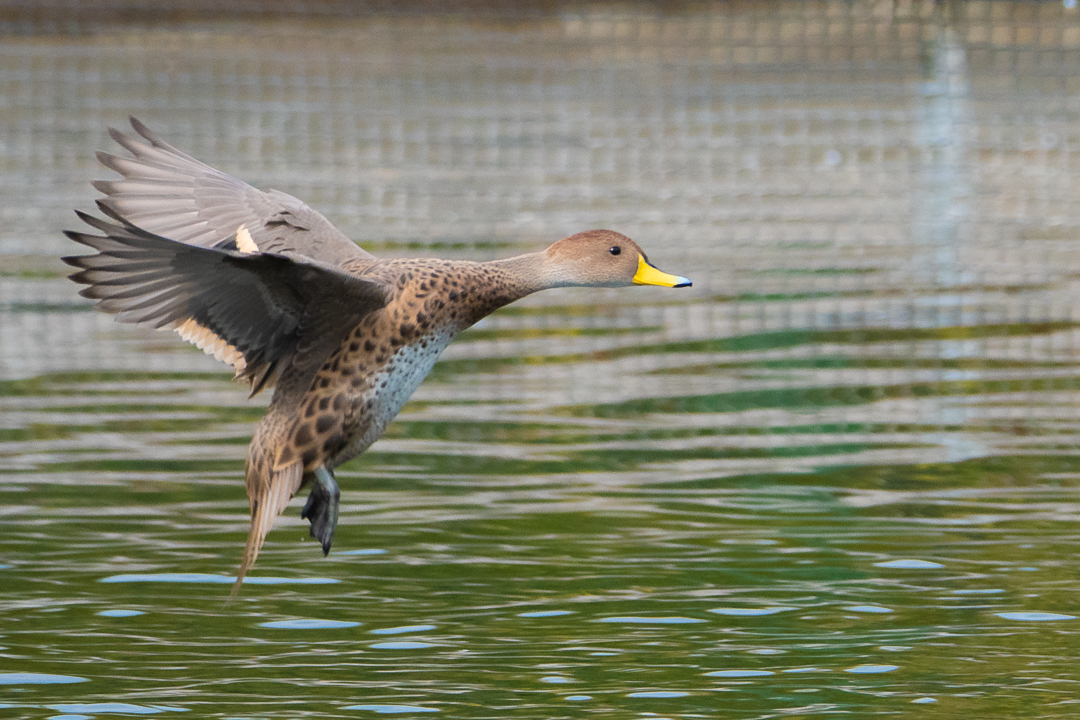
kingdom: Animalia
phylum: Chordata
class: Aves
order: Anseriformes
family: Anatidae
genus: Anas
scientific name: Anas georgica
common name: Yellow-billed pintail
